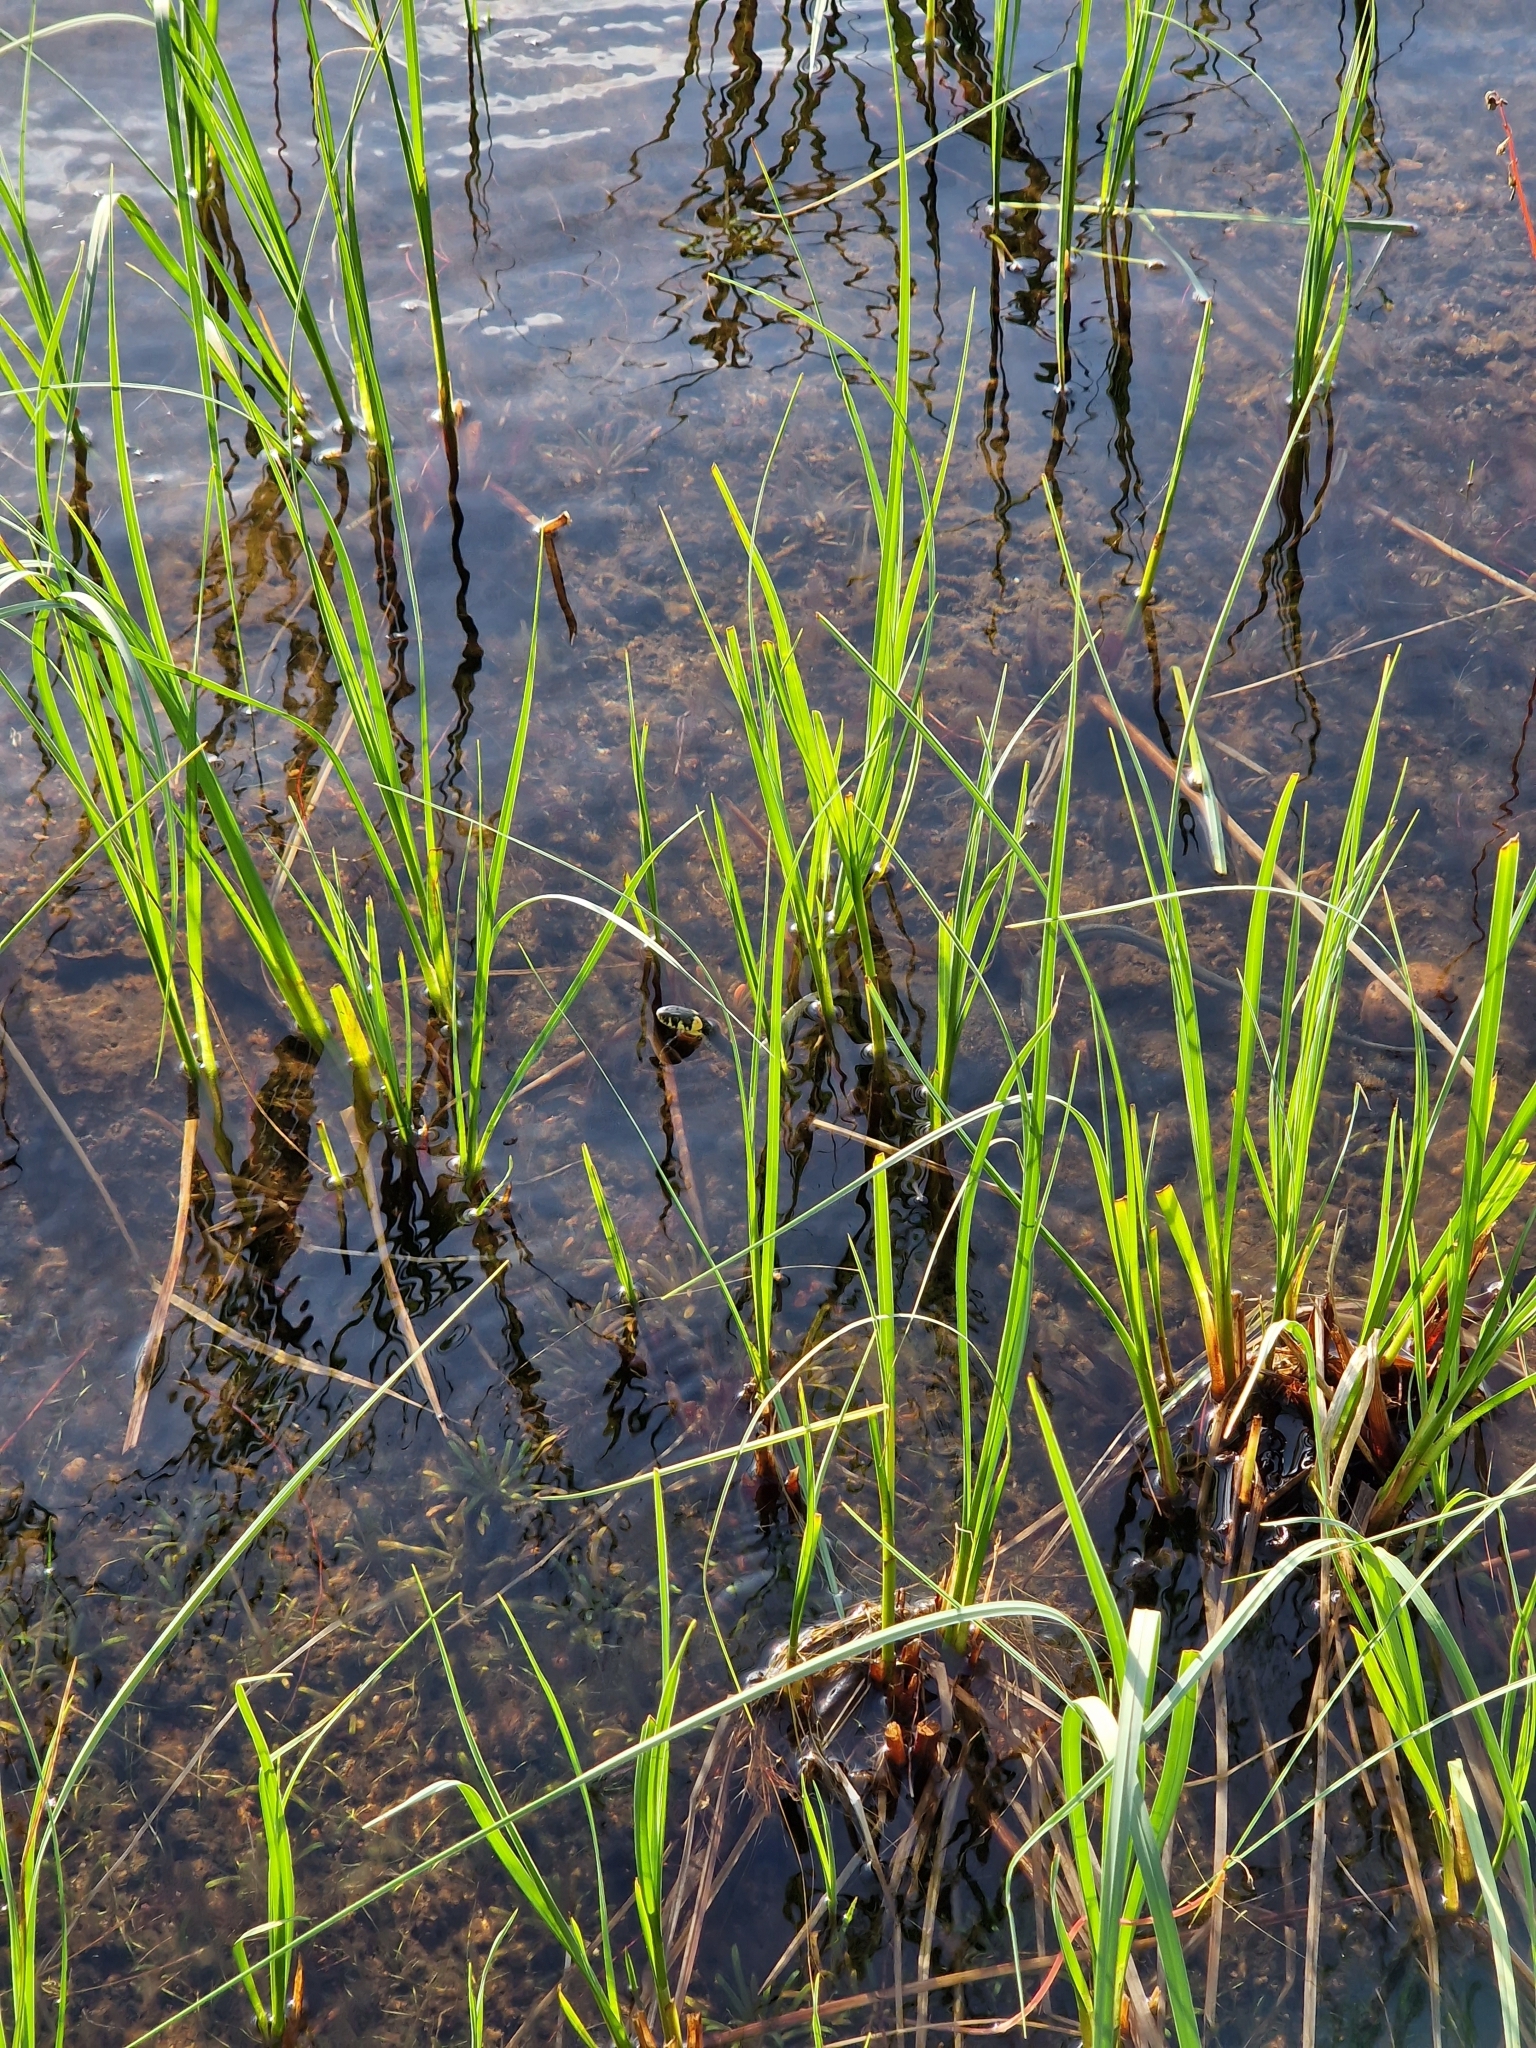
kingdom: Animalia
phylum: Chordata
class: Squamata
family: Colubridae
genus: Natrix
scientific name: Natrix natrix
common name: Grass snake
